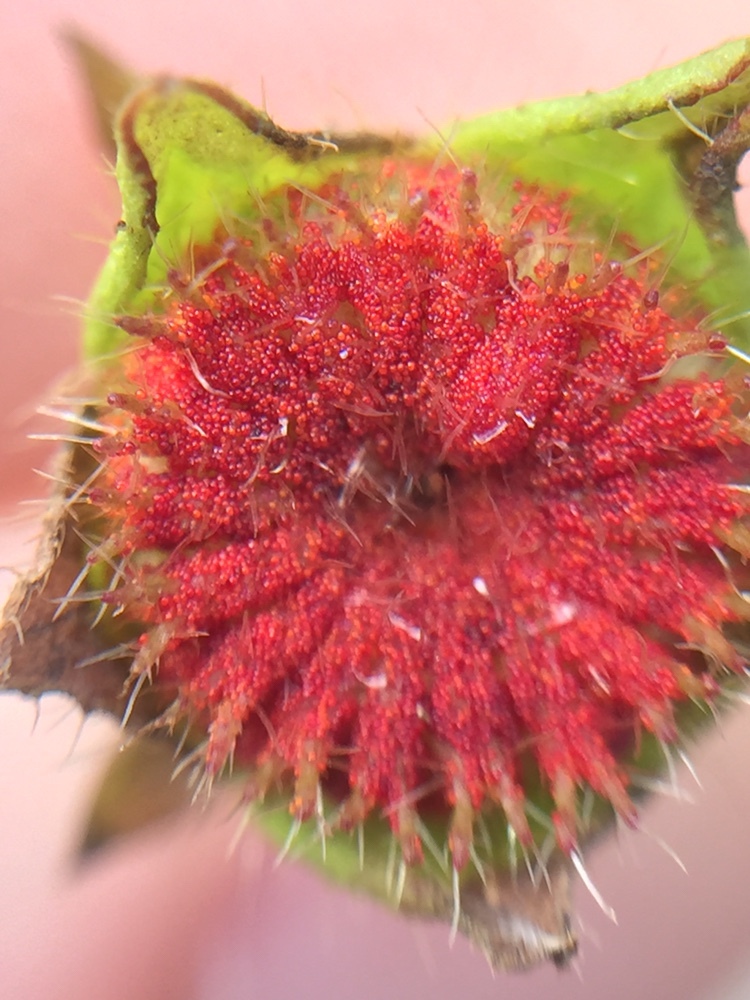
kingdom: Fungi
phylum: Chytridiomycota
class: Chytridiomycetes
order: Chytridiales
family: Synchytriaceae
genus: Synchytrium
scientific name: Synchytrium australe
